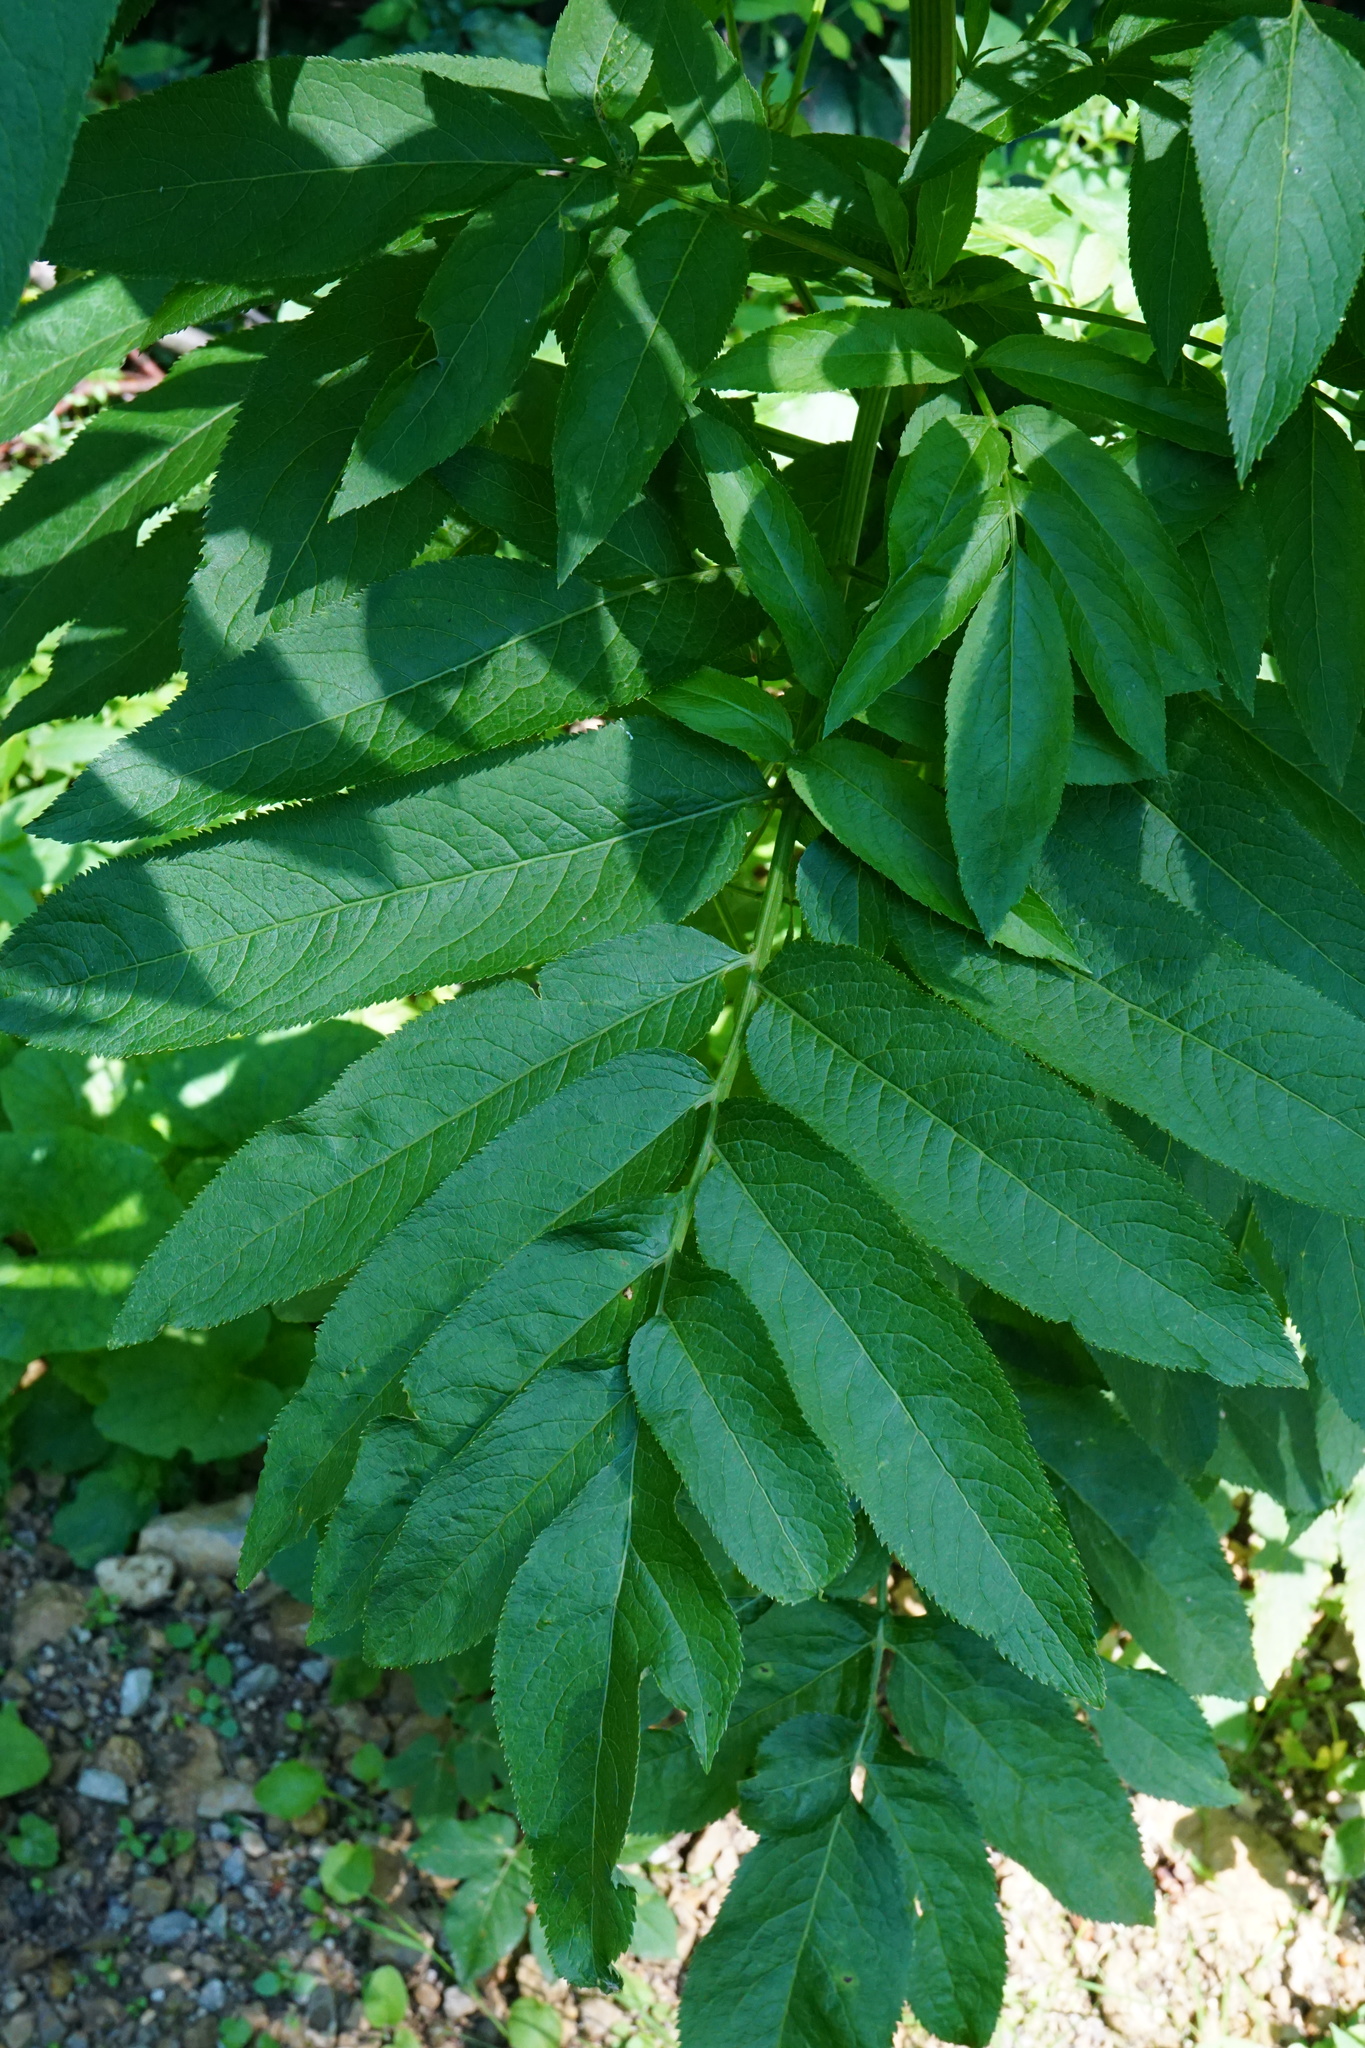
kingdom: Plantae
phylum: Tracheophyta
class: Magnoliopsida
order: Dipsacales
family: Viburnaceae
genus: Sambucus
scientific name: Sambucus ebulus
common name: Dwarf elder
